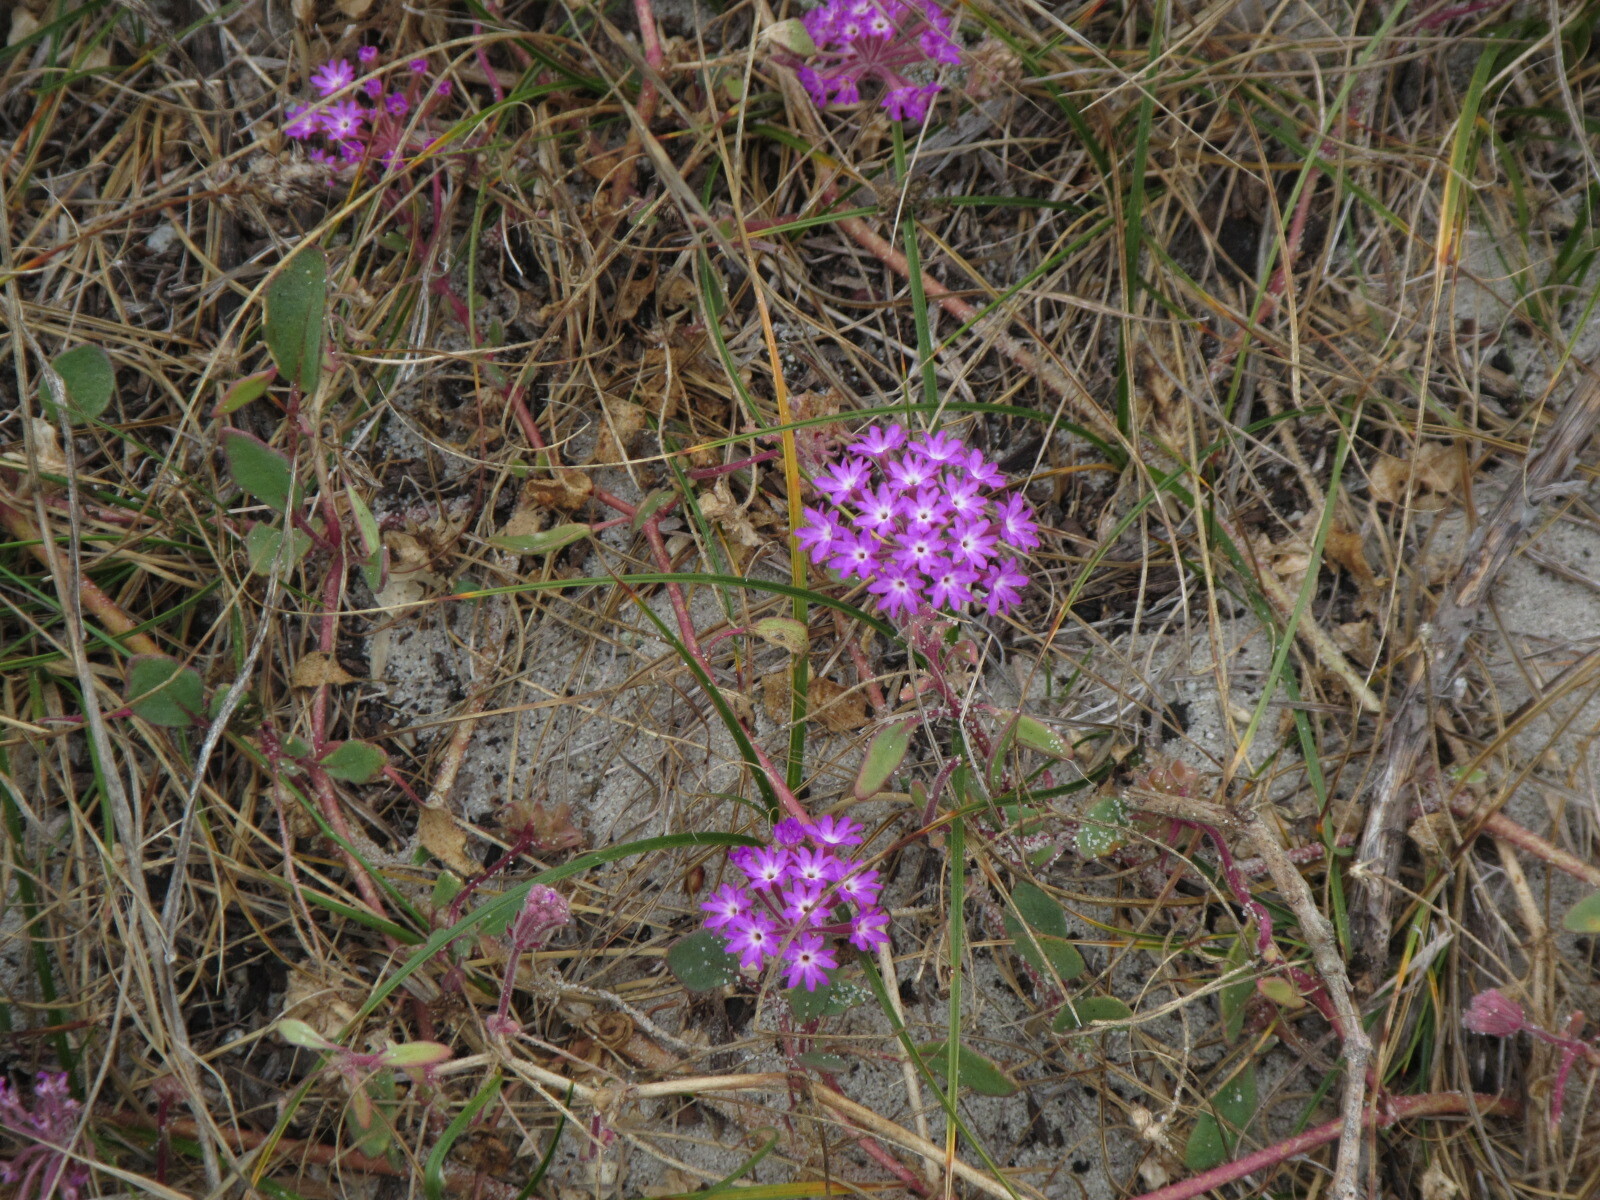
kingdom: Plantae
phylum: Tracheophyta
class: Magnoliopsida
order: Caryophyllales
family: Nyctaginaceae
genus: Abronia
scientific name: Abronia umbellata
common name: Sand-verbena
